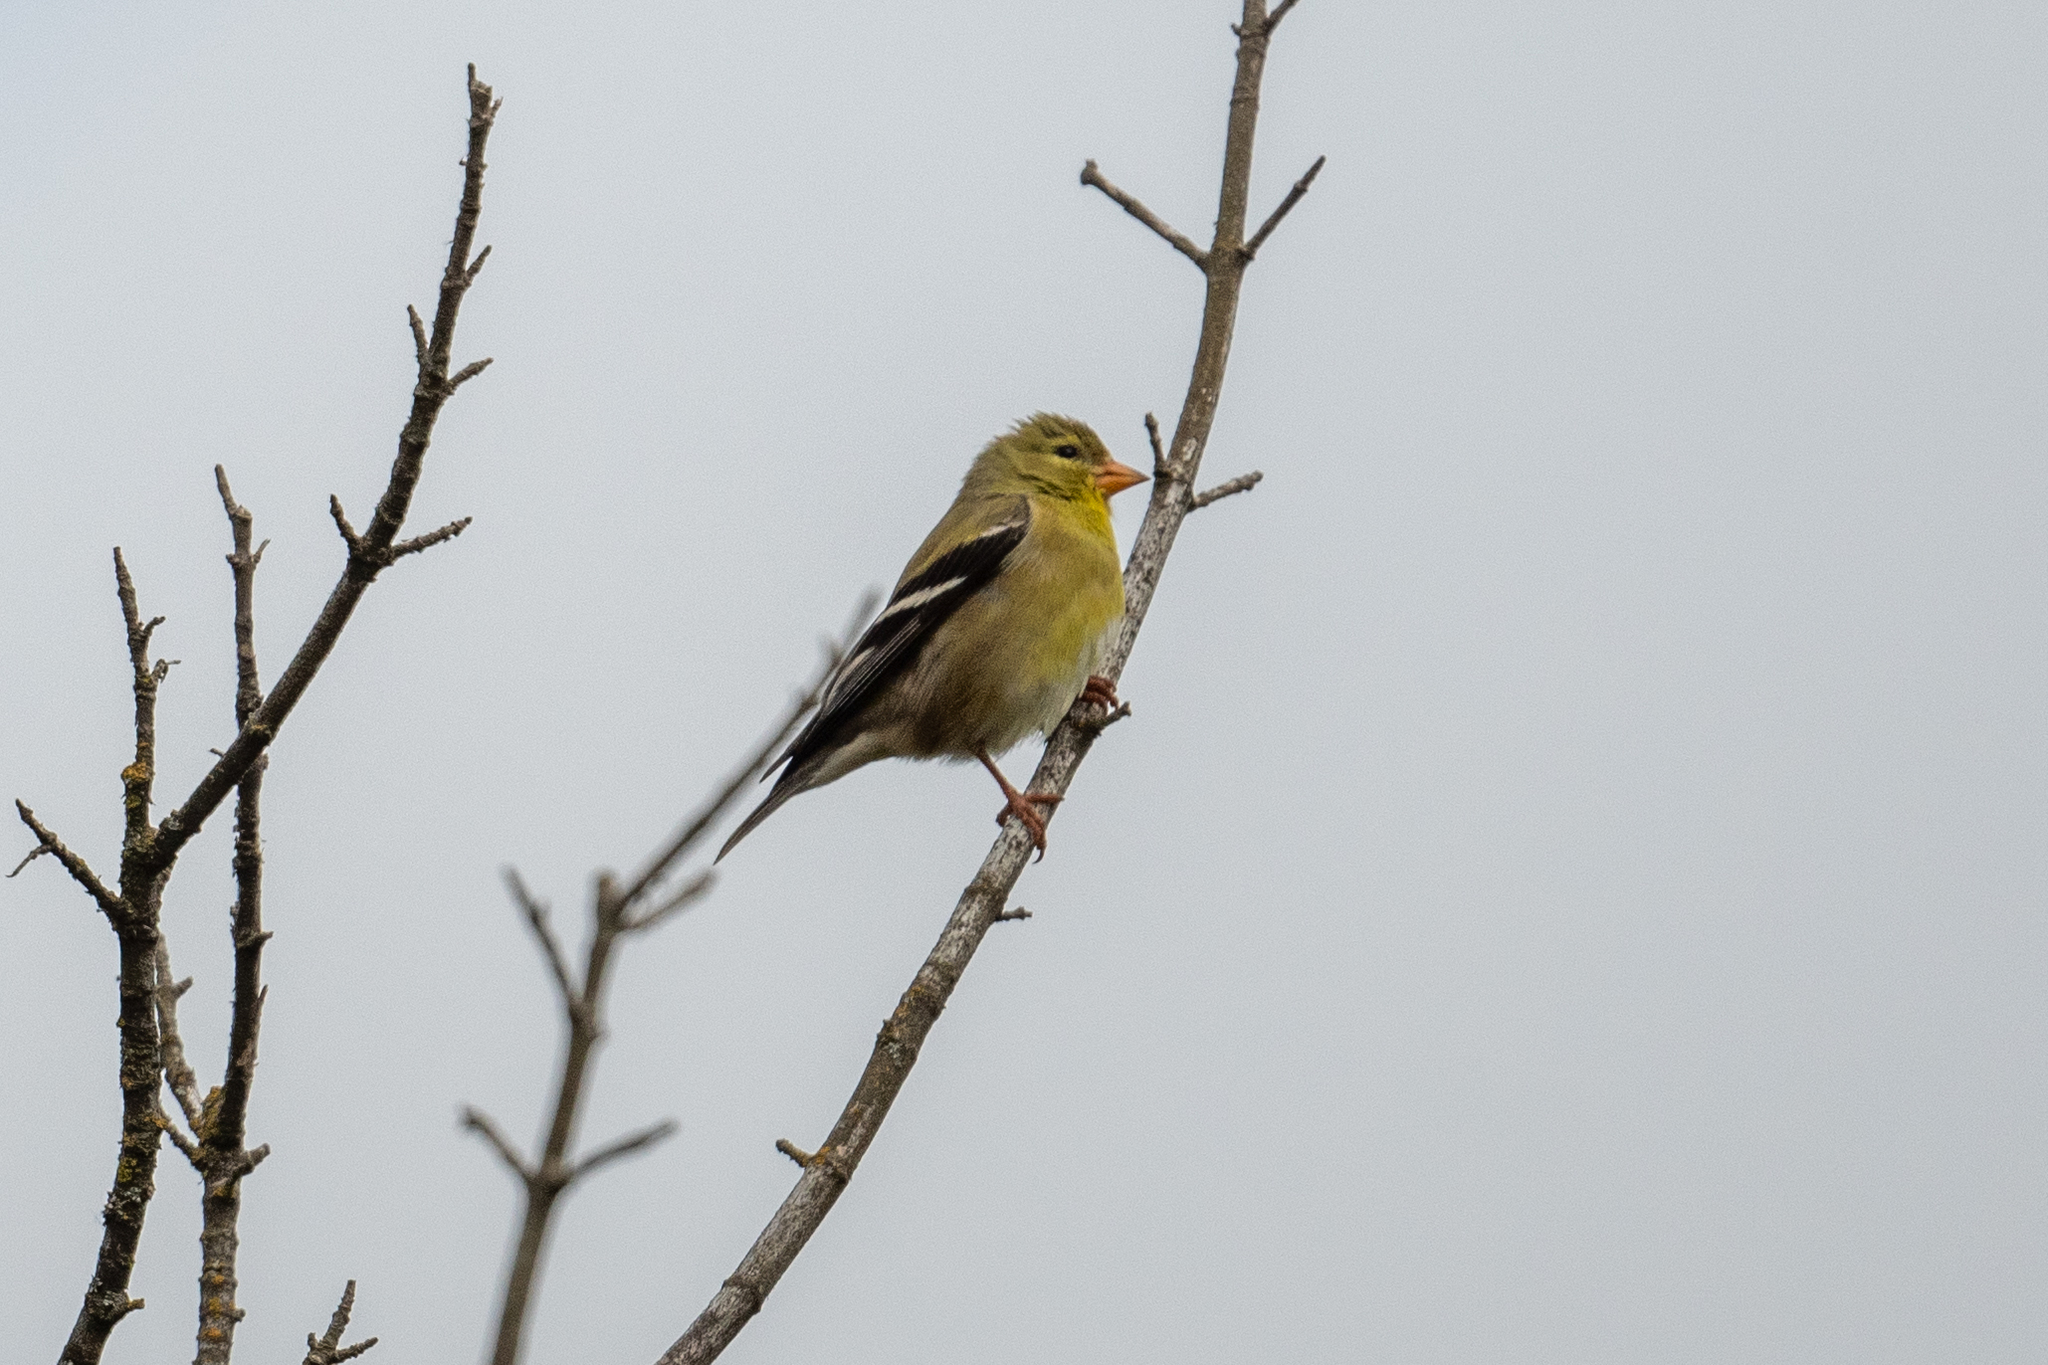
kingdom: Animalia
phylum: Chordata
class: Aves
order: Passeriformes
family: Fringillidae
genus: Spinus
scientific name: Spinus tristis
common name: American goldfinch
